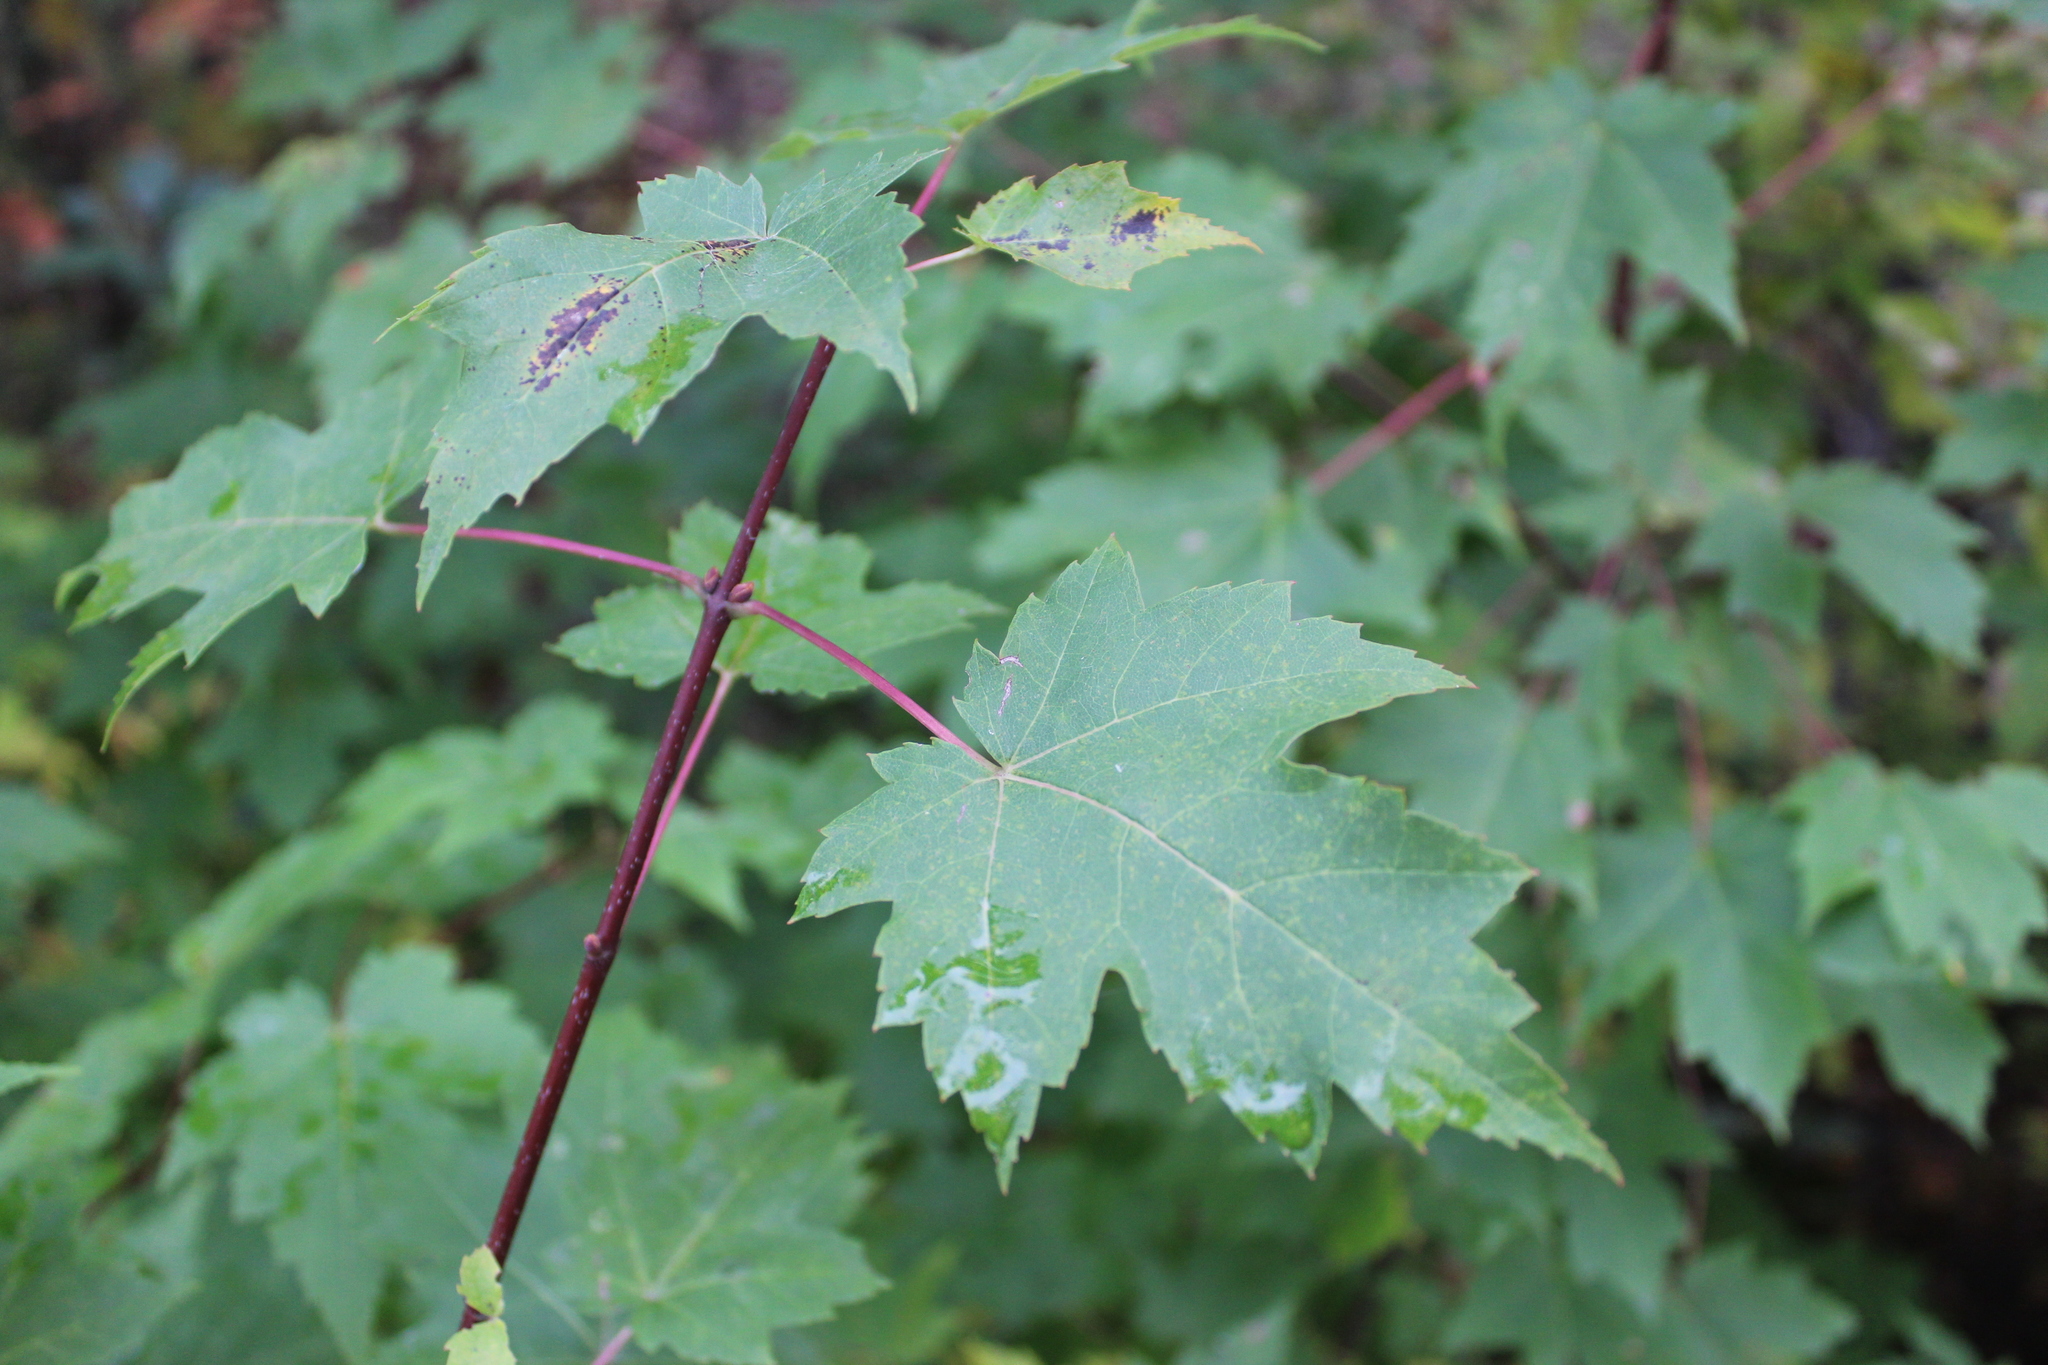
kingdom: Plantae
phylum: Tracheophyta
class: Magnoliopsida
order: Sapindales
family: Sapindaceae
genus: Acer
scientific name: Acer rubrum
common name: Red maple
